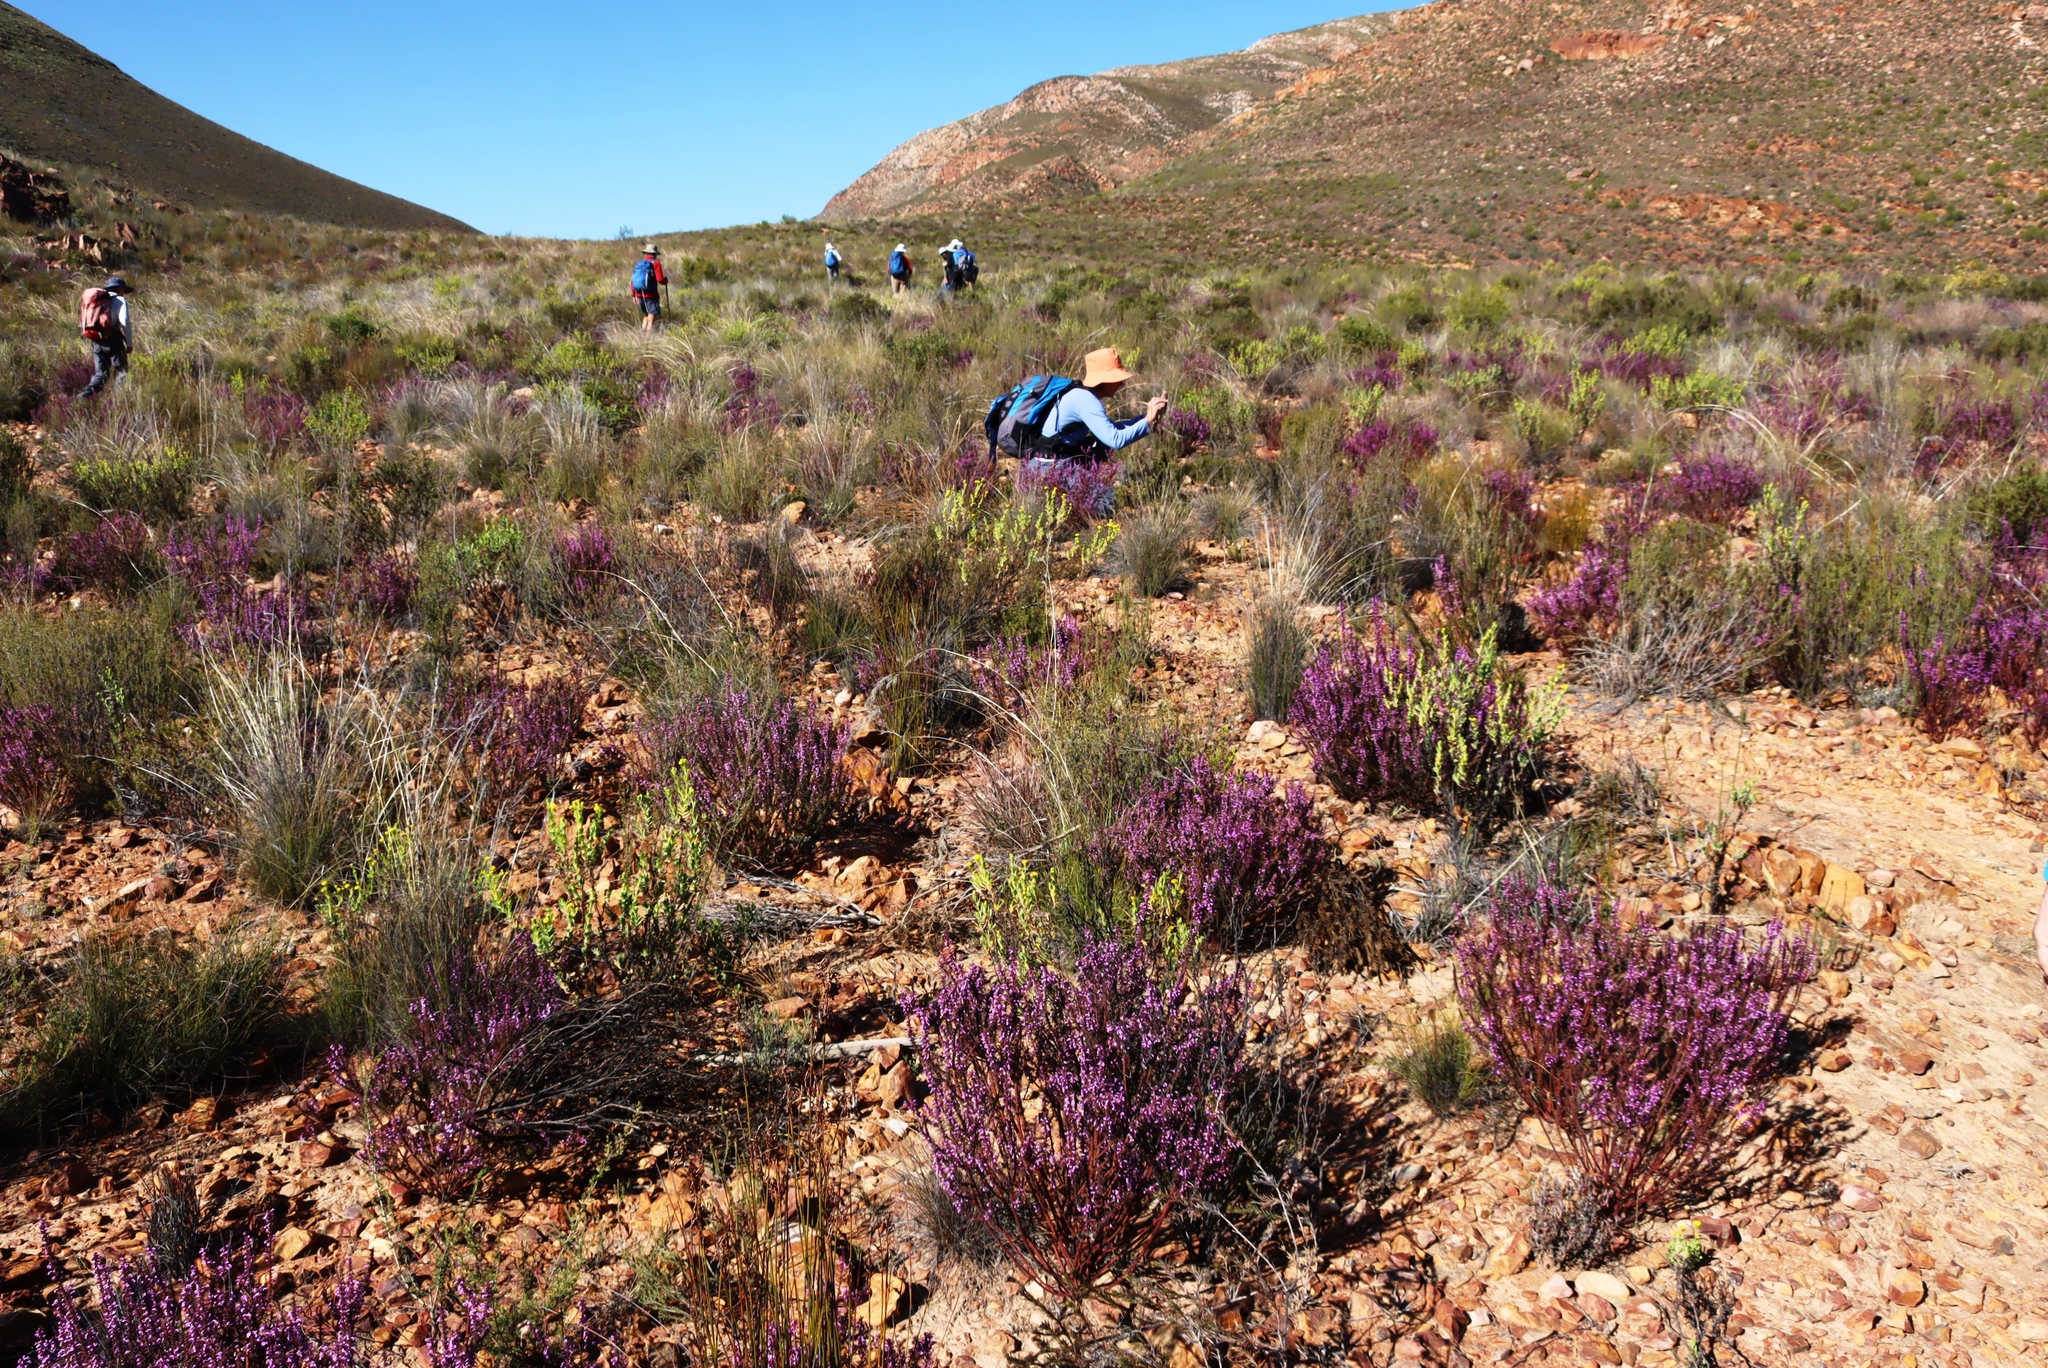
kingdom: Plantae
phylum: Tracheophyta
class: Magnoliopsida
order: Fabales
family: Polygalaceae
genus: Muraltia
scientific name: Muraltia juniperifolia
